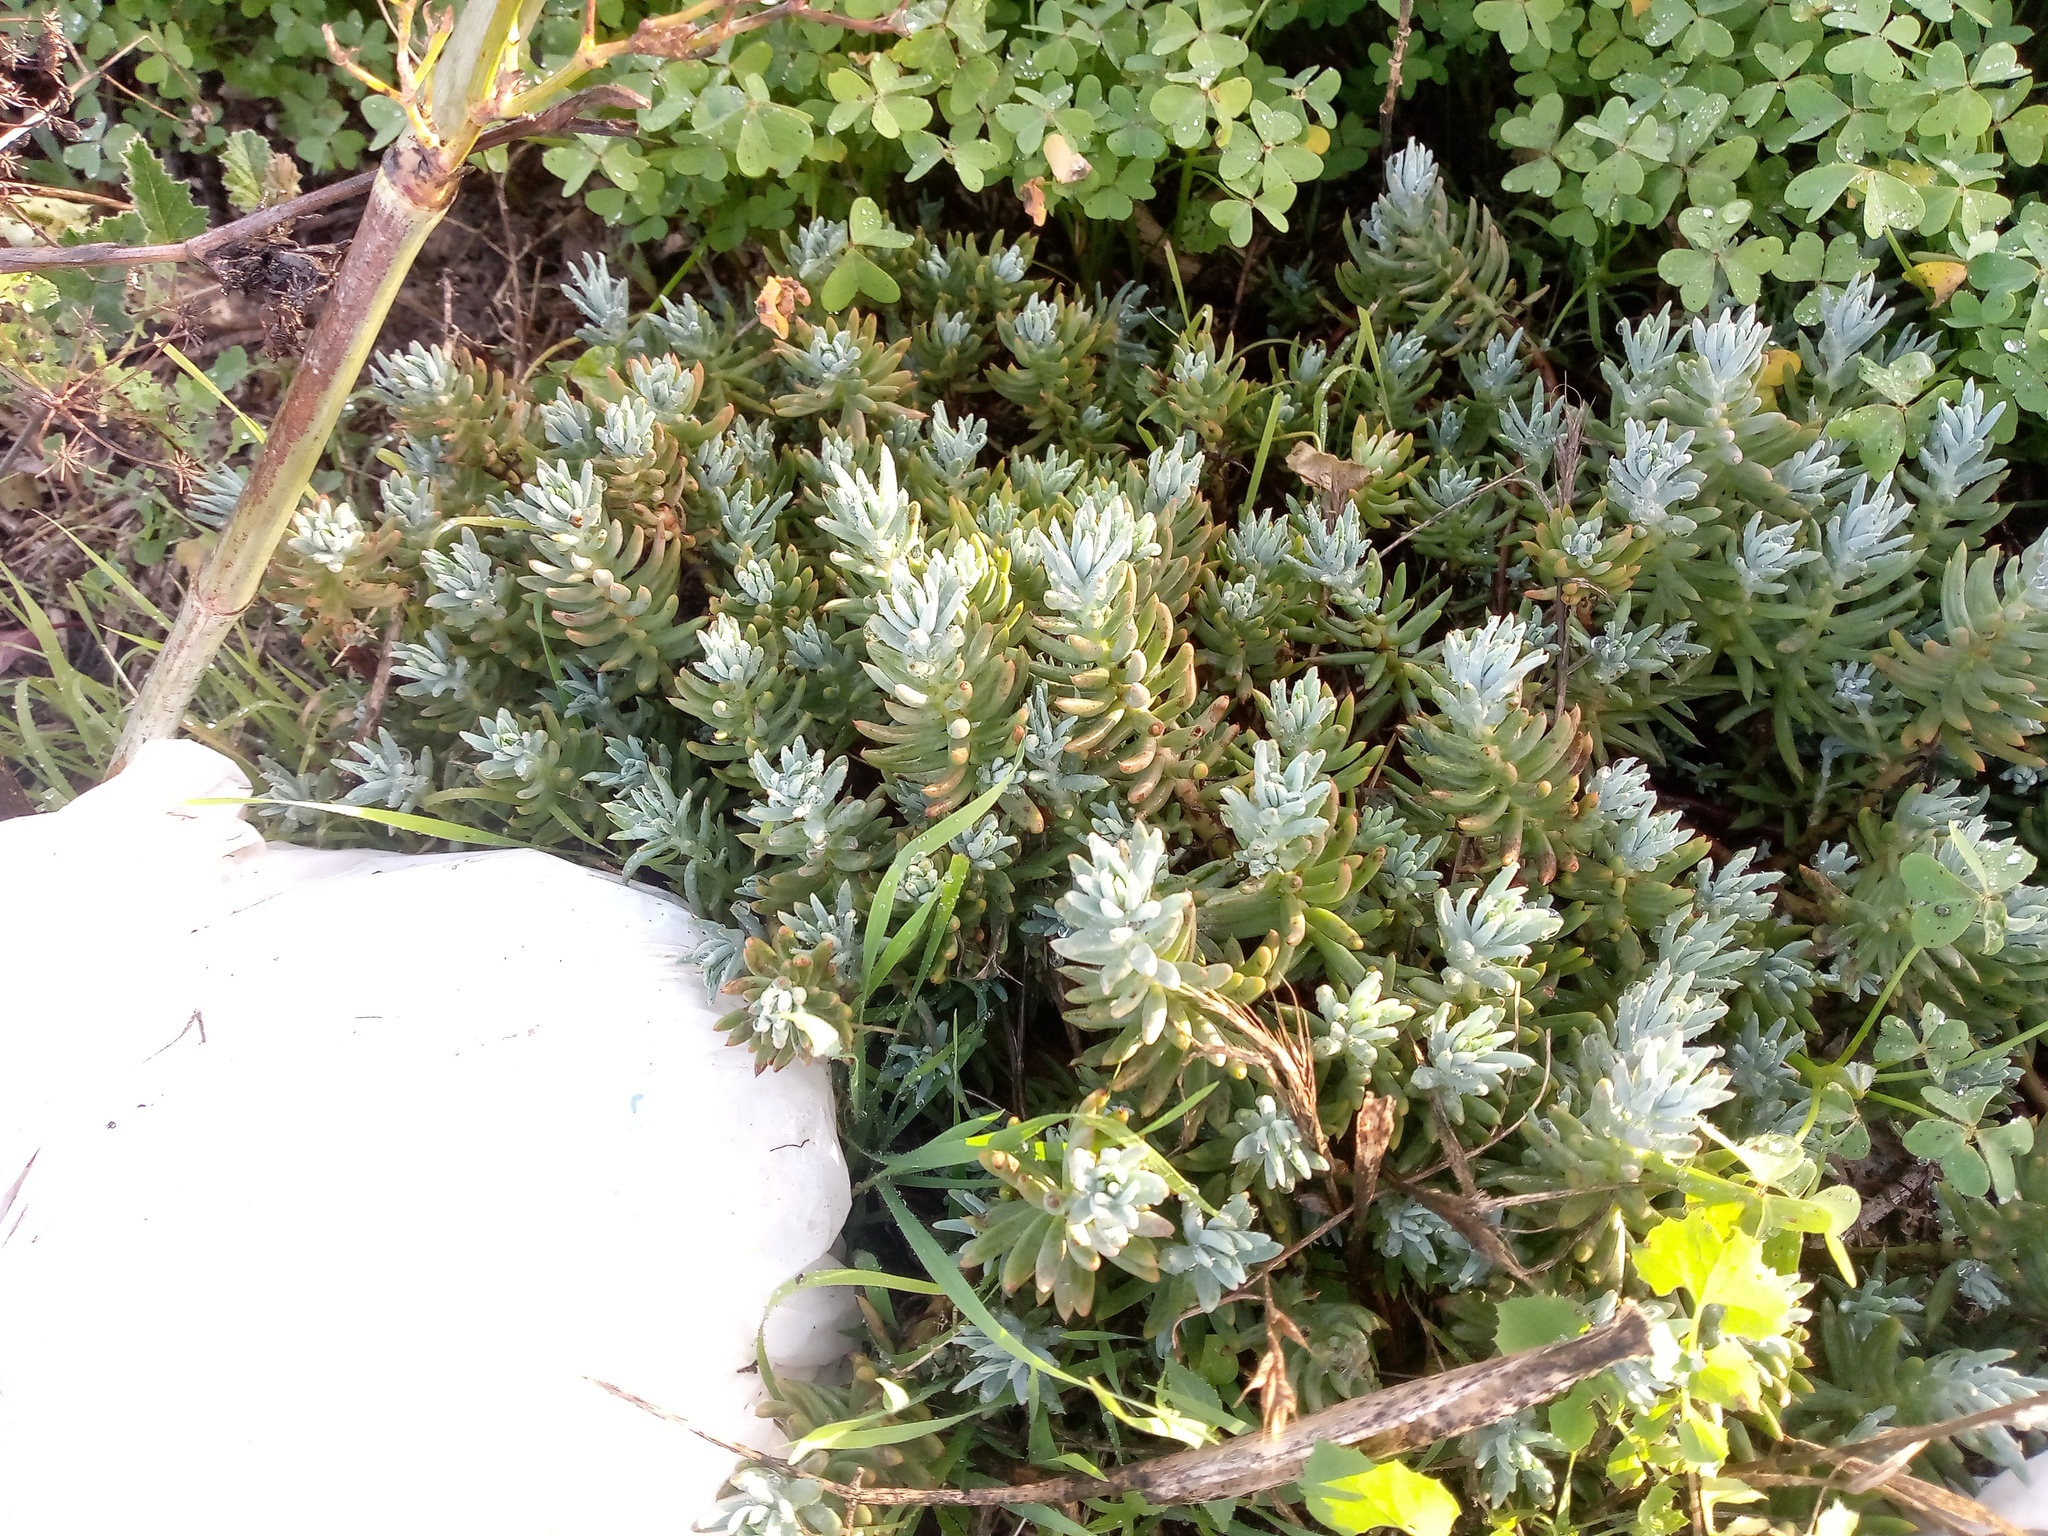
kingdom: Plantae
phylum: Tracheophyta
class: Magnoliopsida
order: Saxifragales
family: Crassulaceae
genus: Petrosedum
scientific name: Petrosedum sediforme
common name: Pale stonecrop
